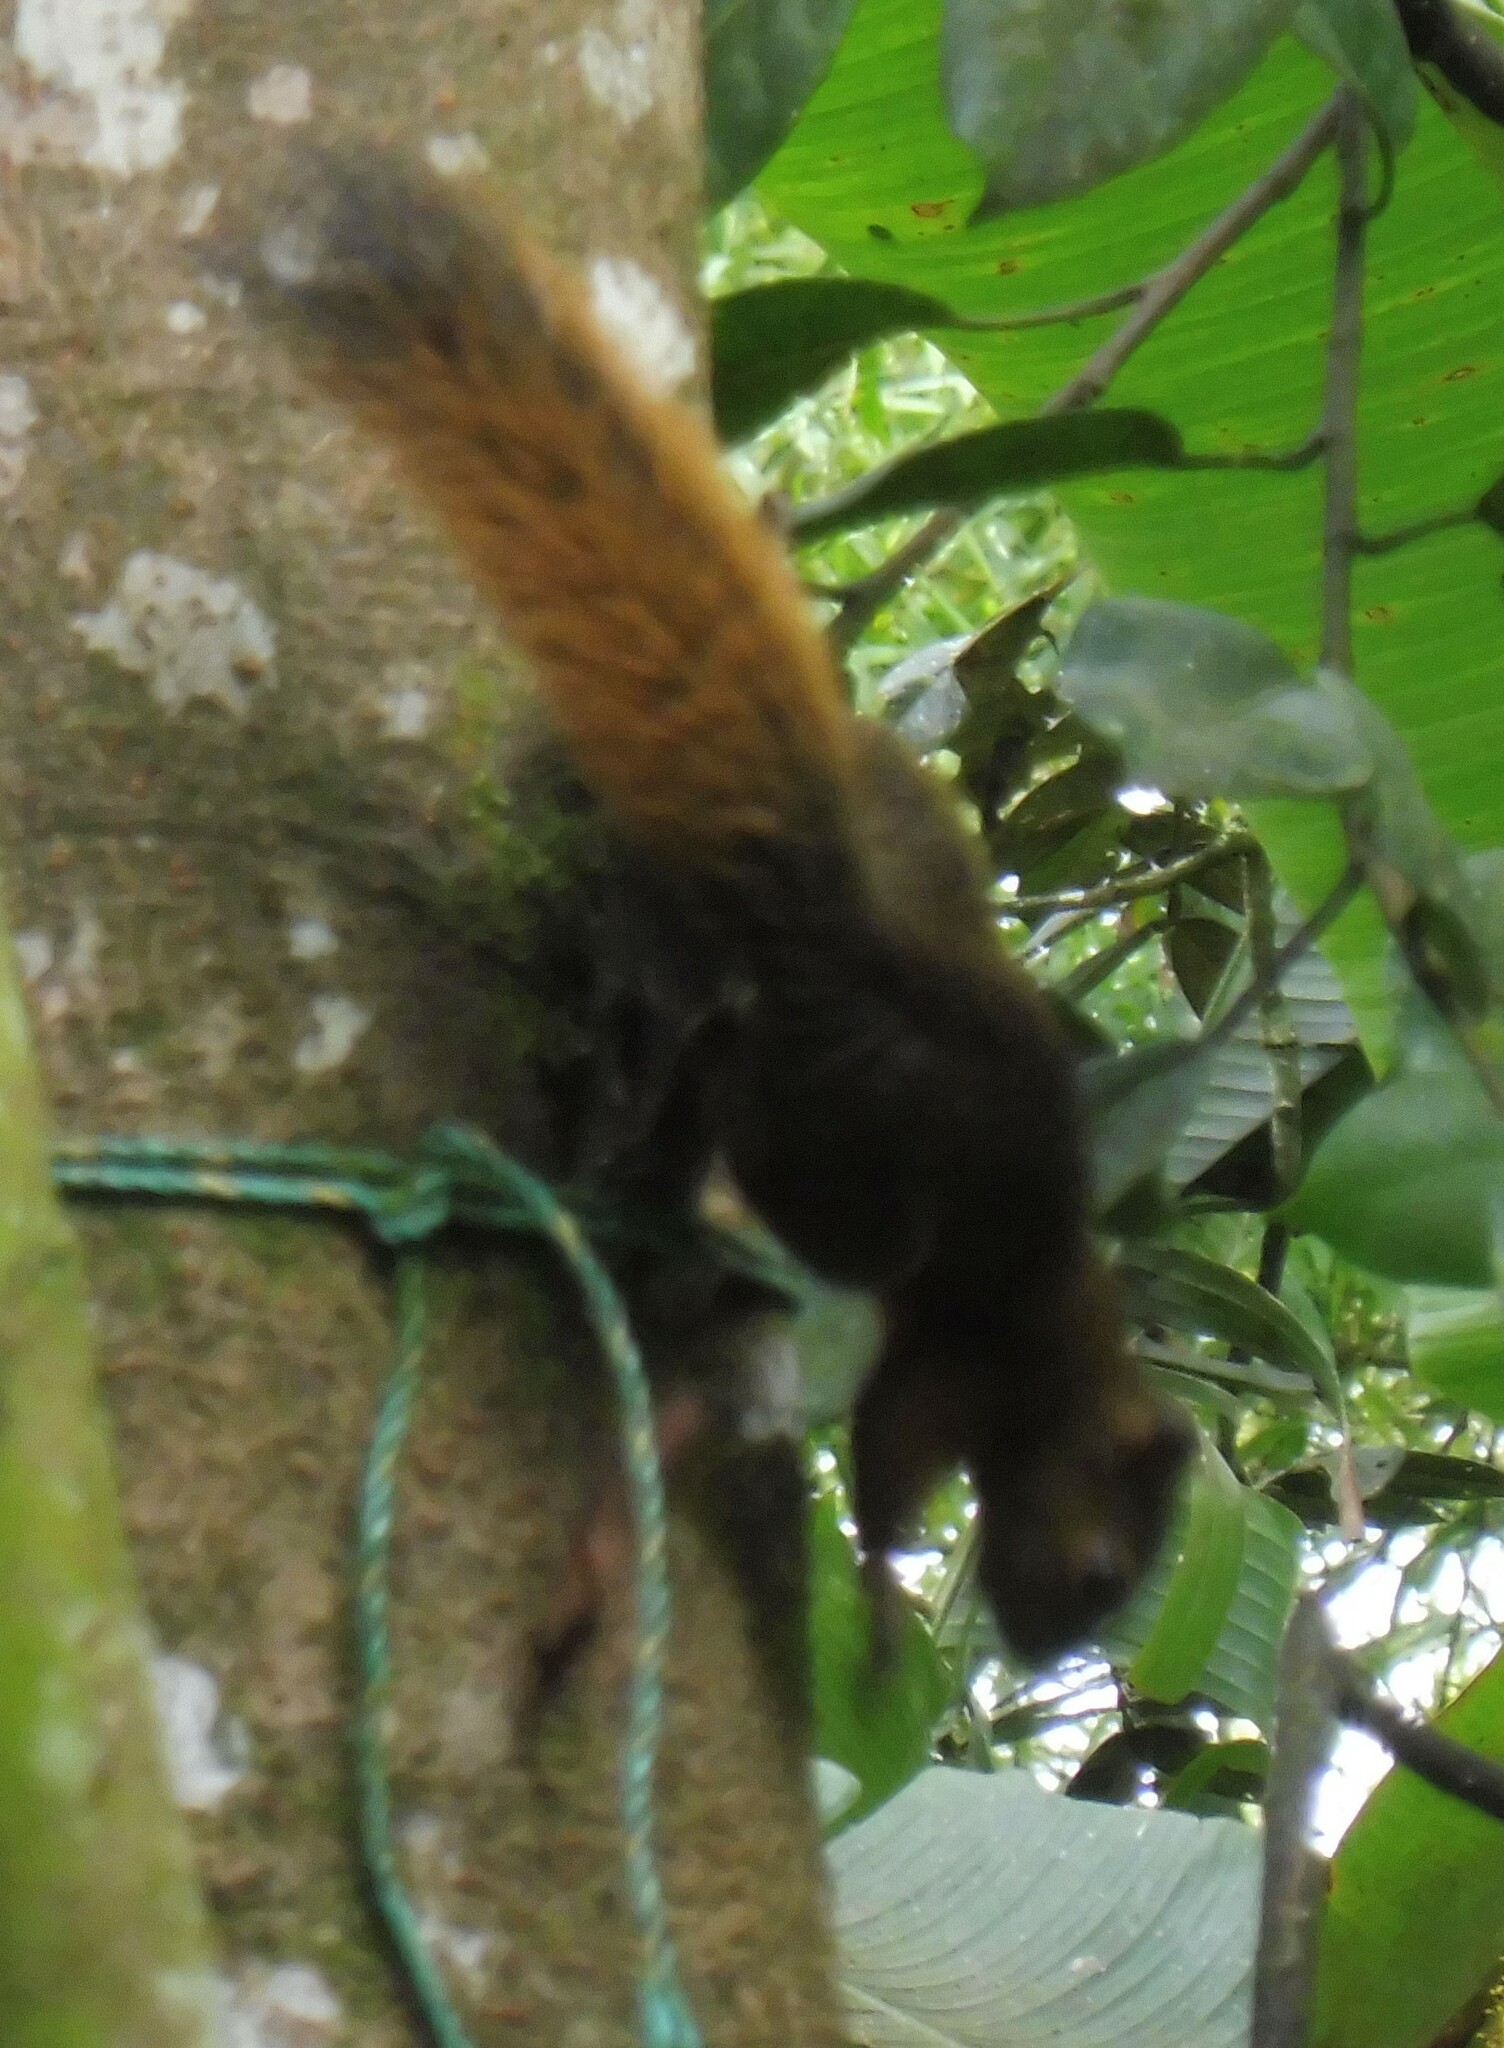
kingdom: Animalia
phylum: Chordata
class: Mammalia
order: Rodentia
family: Sciuridae
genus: Sciurus
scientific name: Sciurus granatensis
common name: Red-tailed squirrel
